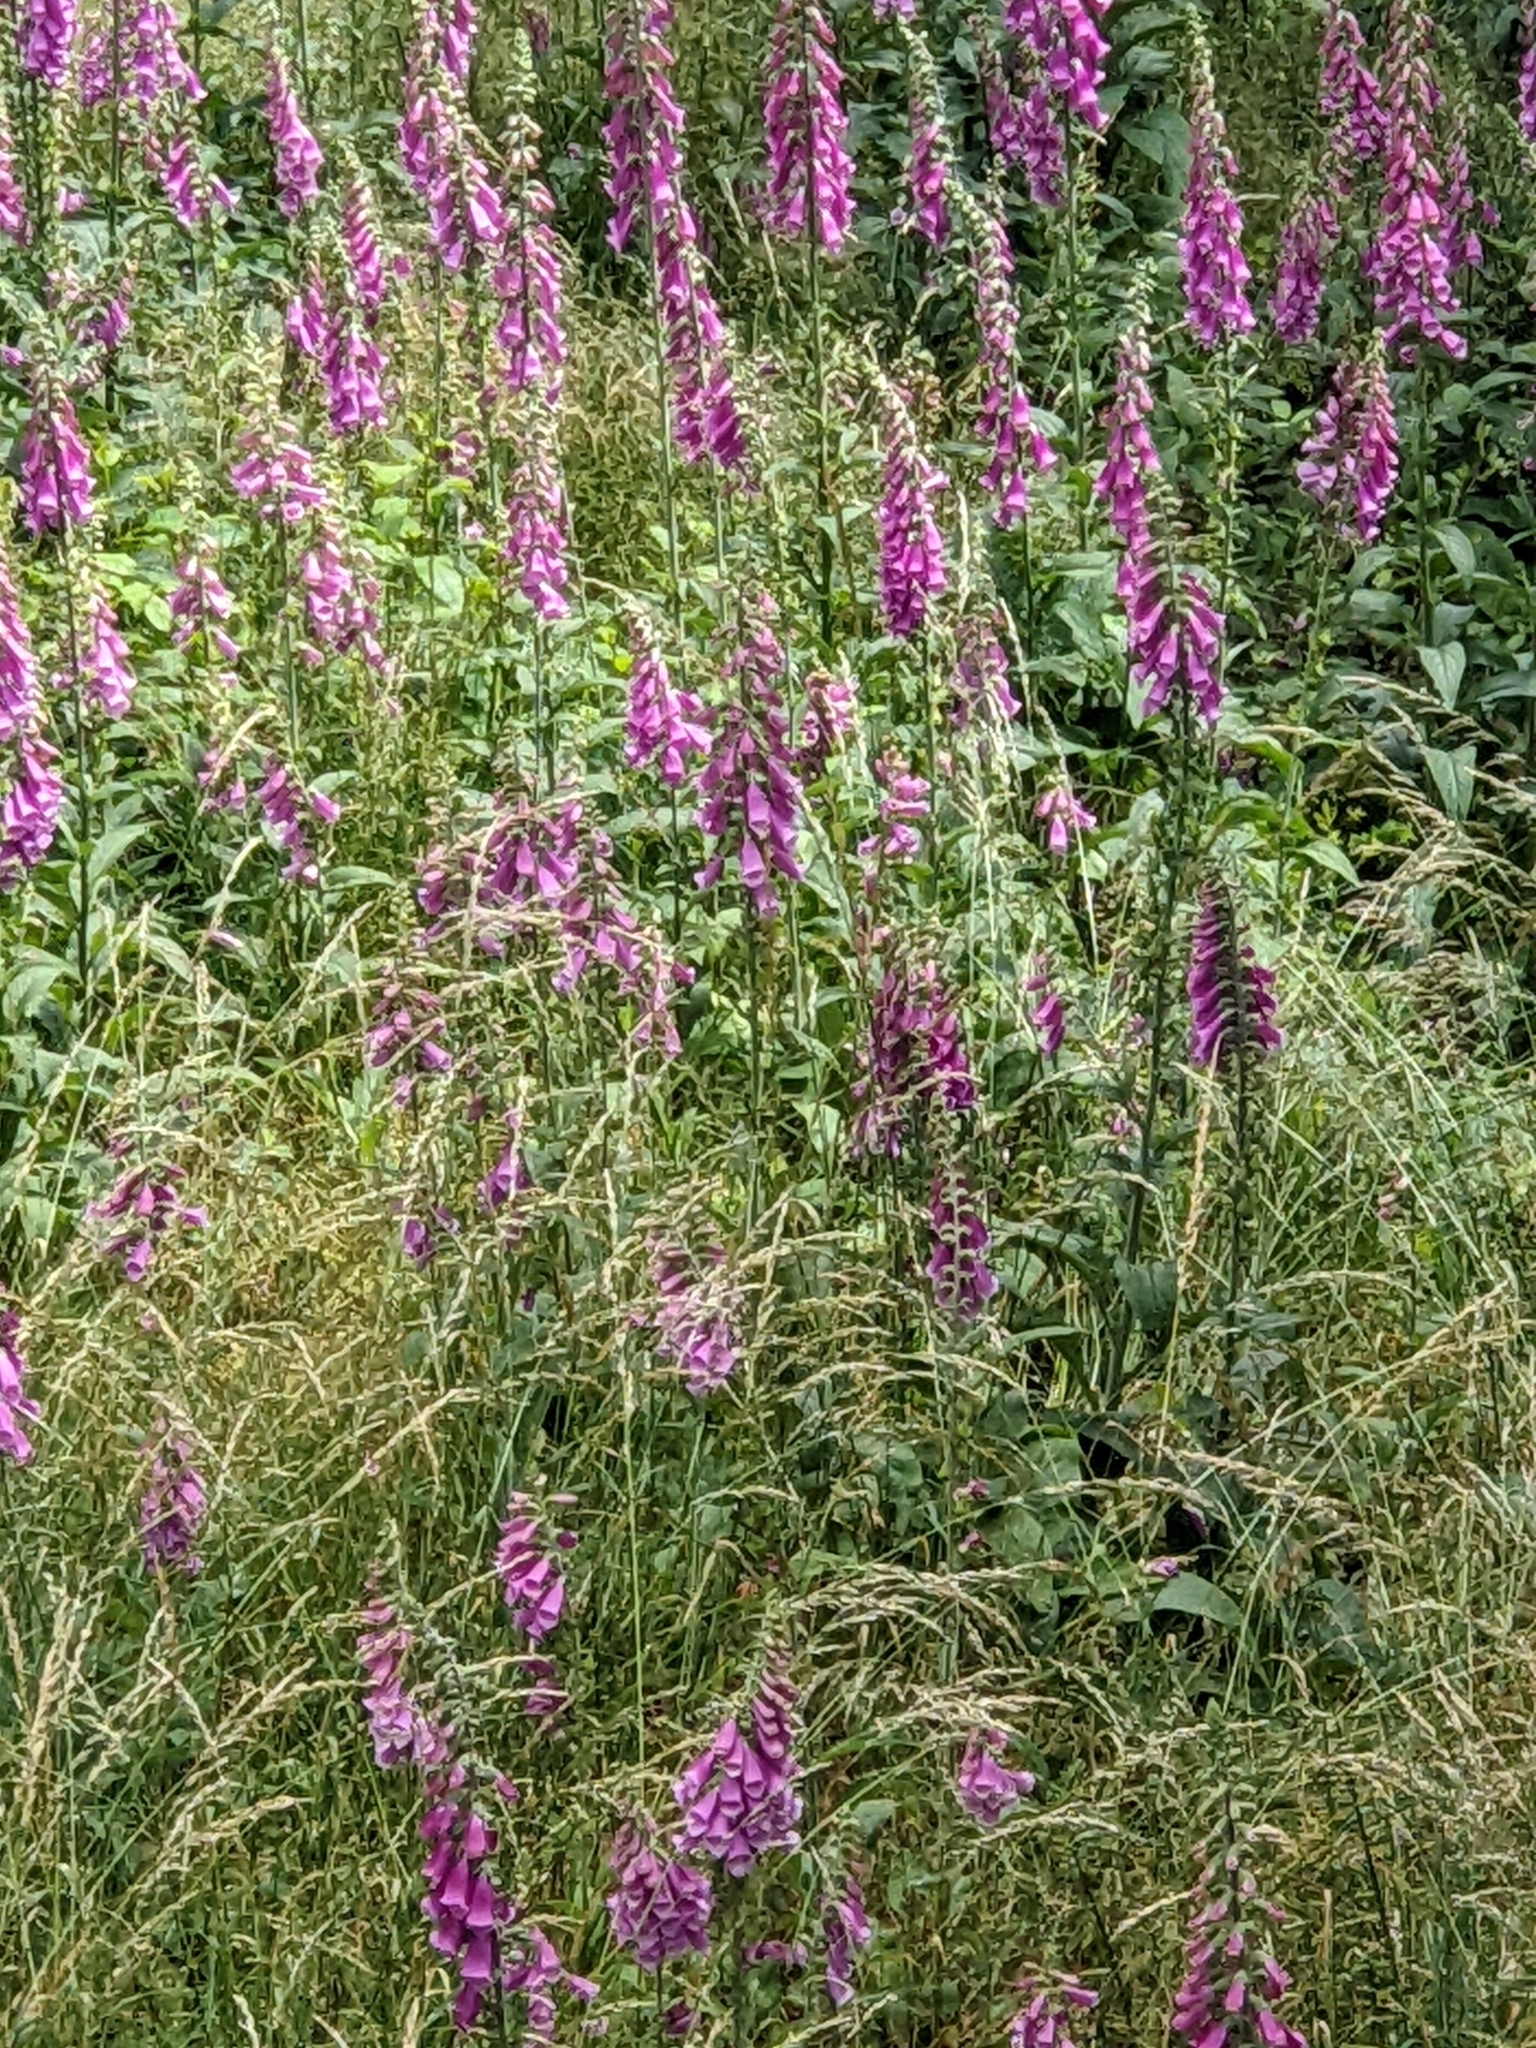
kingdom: Plantae
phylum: Tracheophyta
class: Magnoliopsida
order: Lamiales
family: Plantaginaceae
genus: Digitalis
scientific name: Digitalis purpurea
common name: Foxglove
